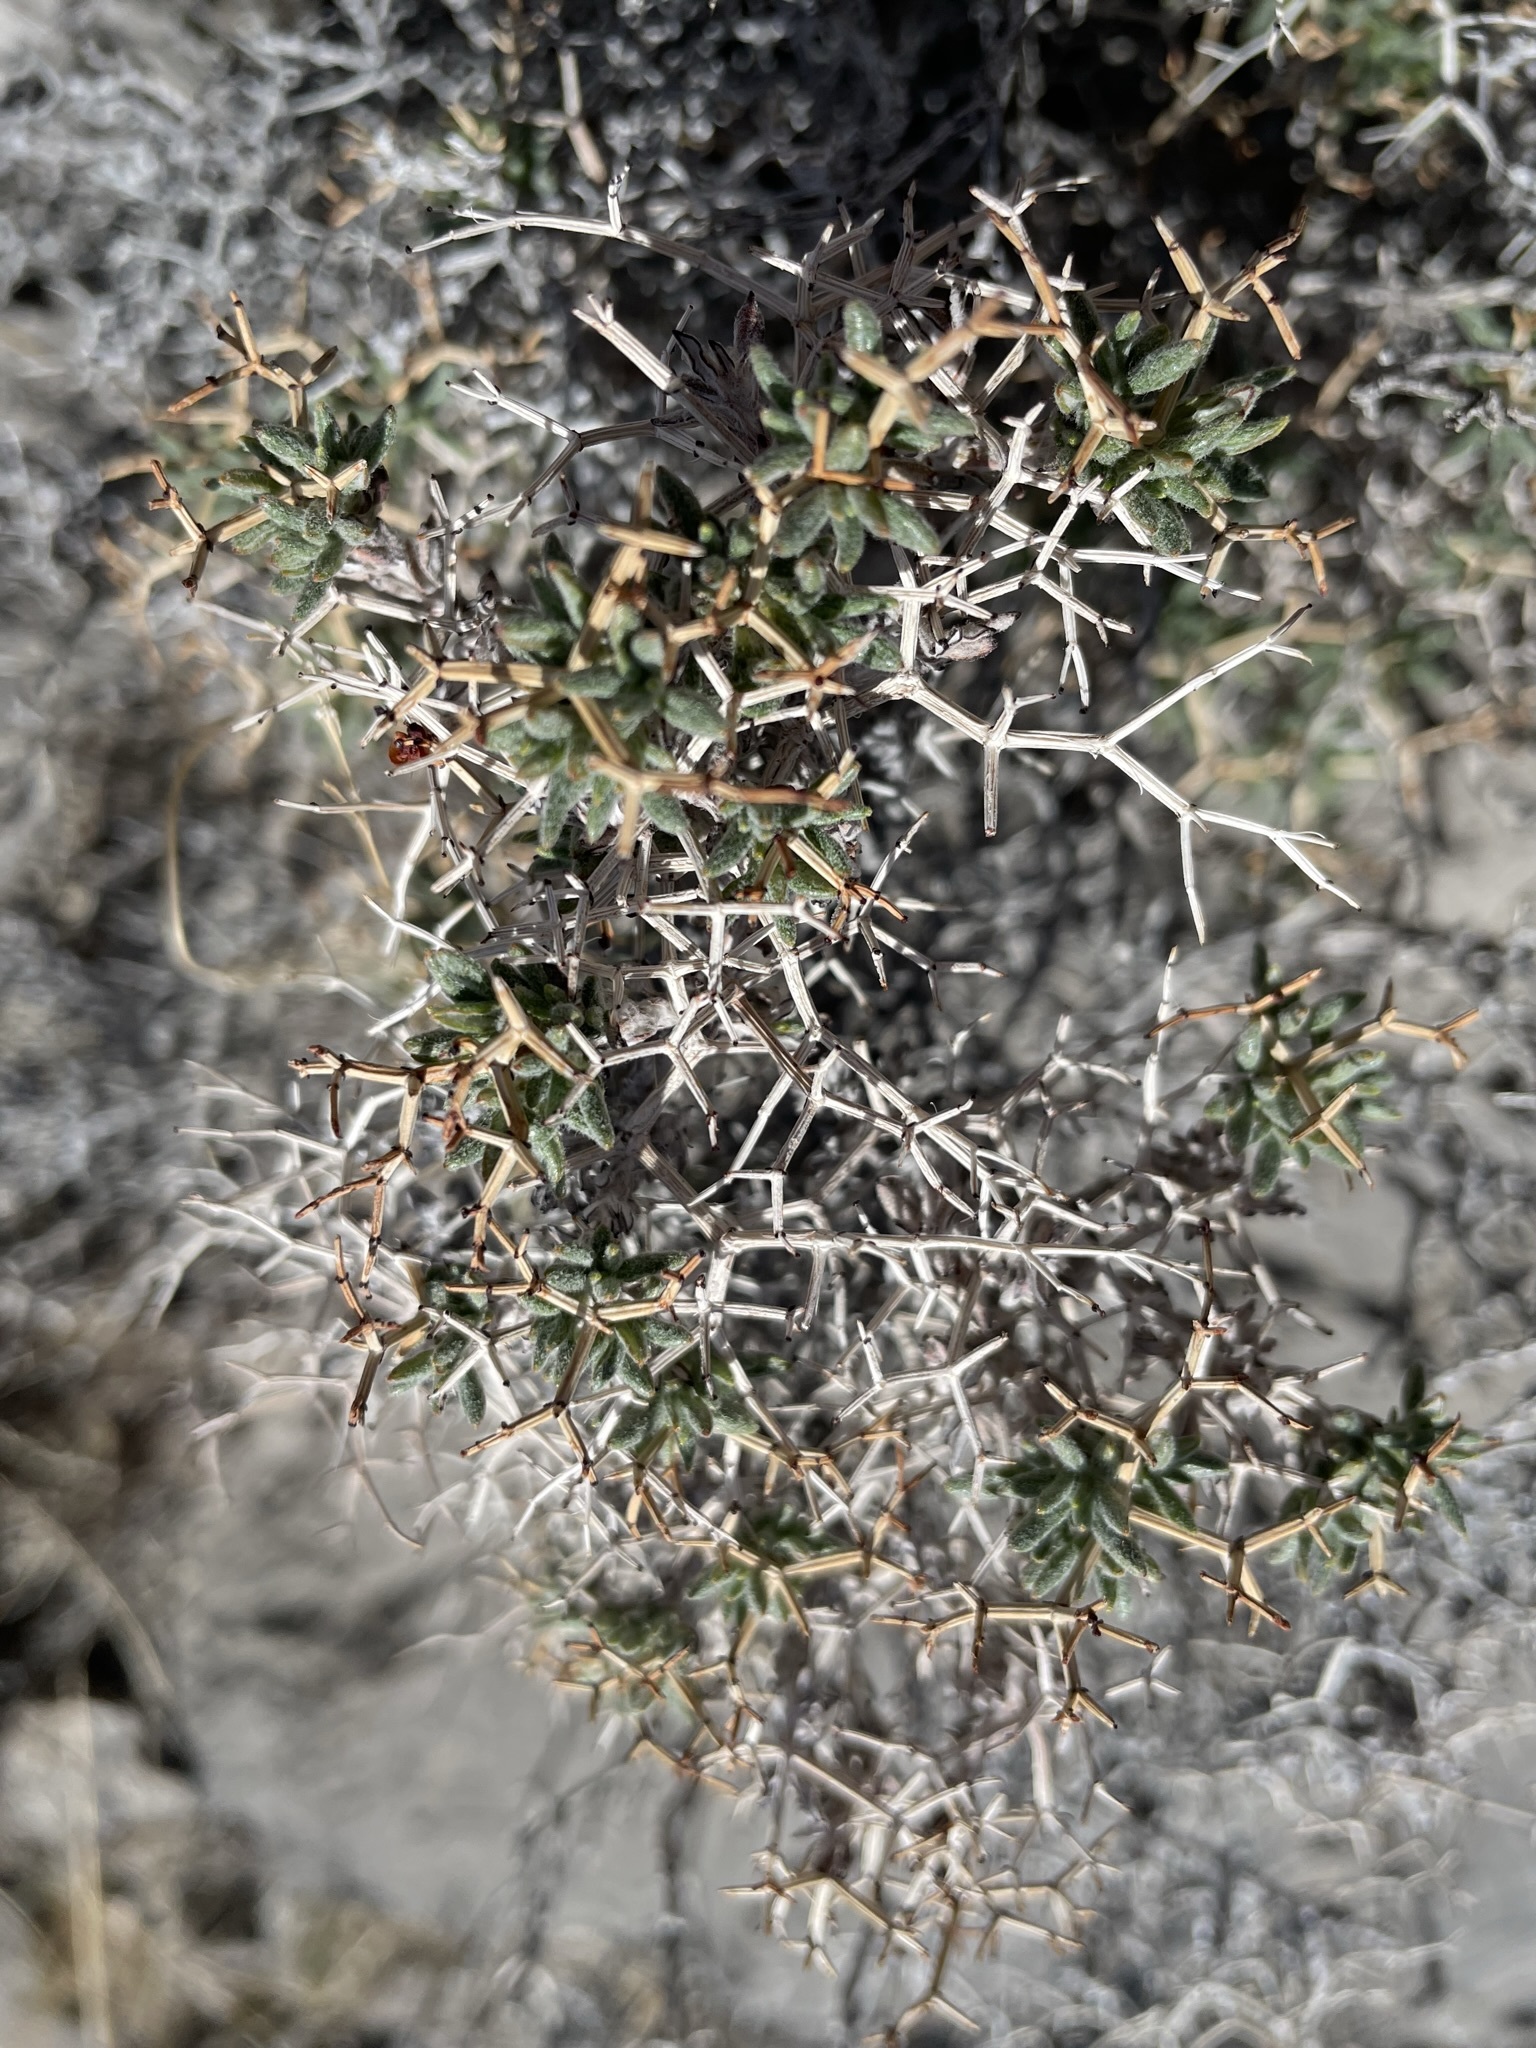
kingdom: Plantae
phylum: Tracheophyta
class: Magnoliopsida
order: Caryophyllales
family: Polygonaceae
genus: Eriogonum
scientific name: Eriogonum heermannii
